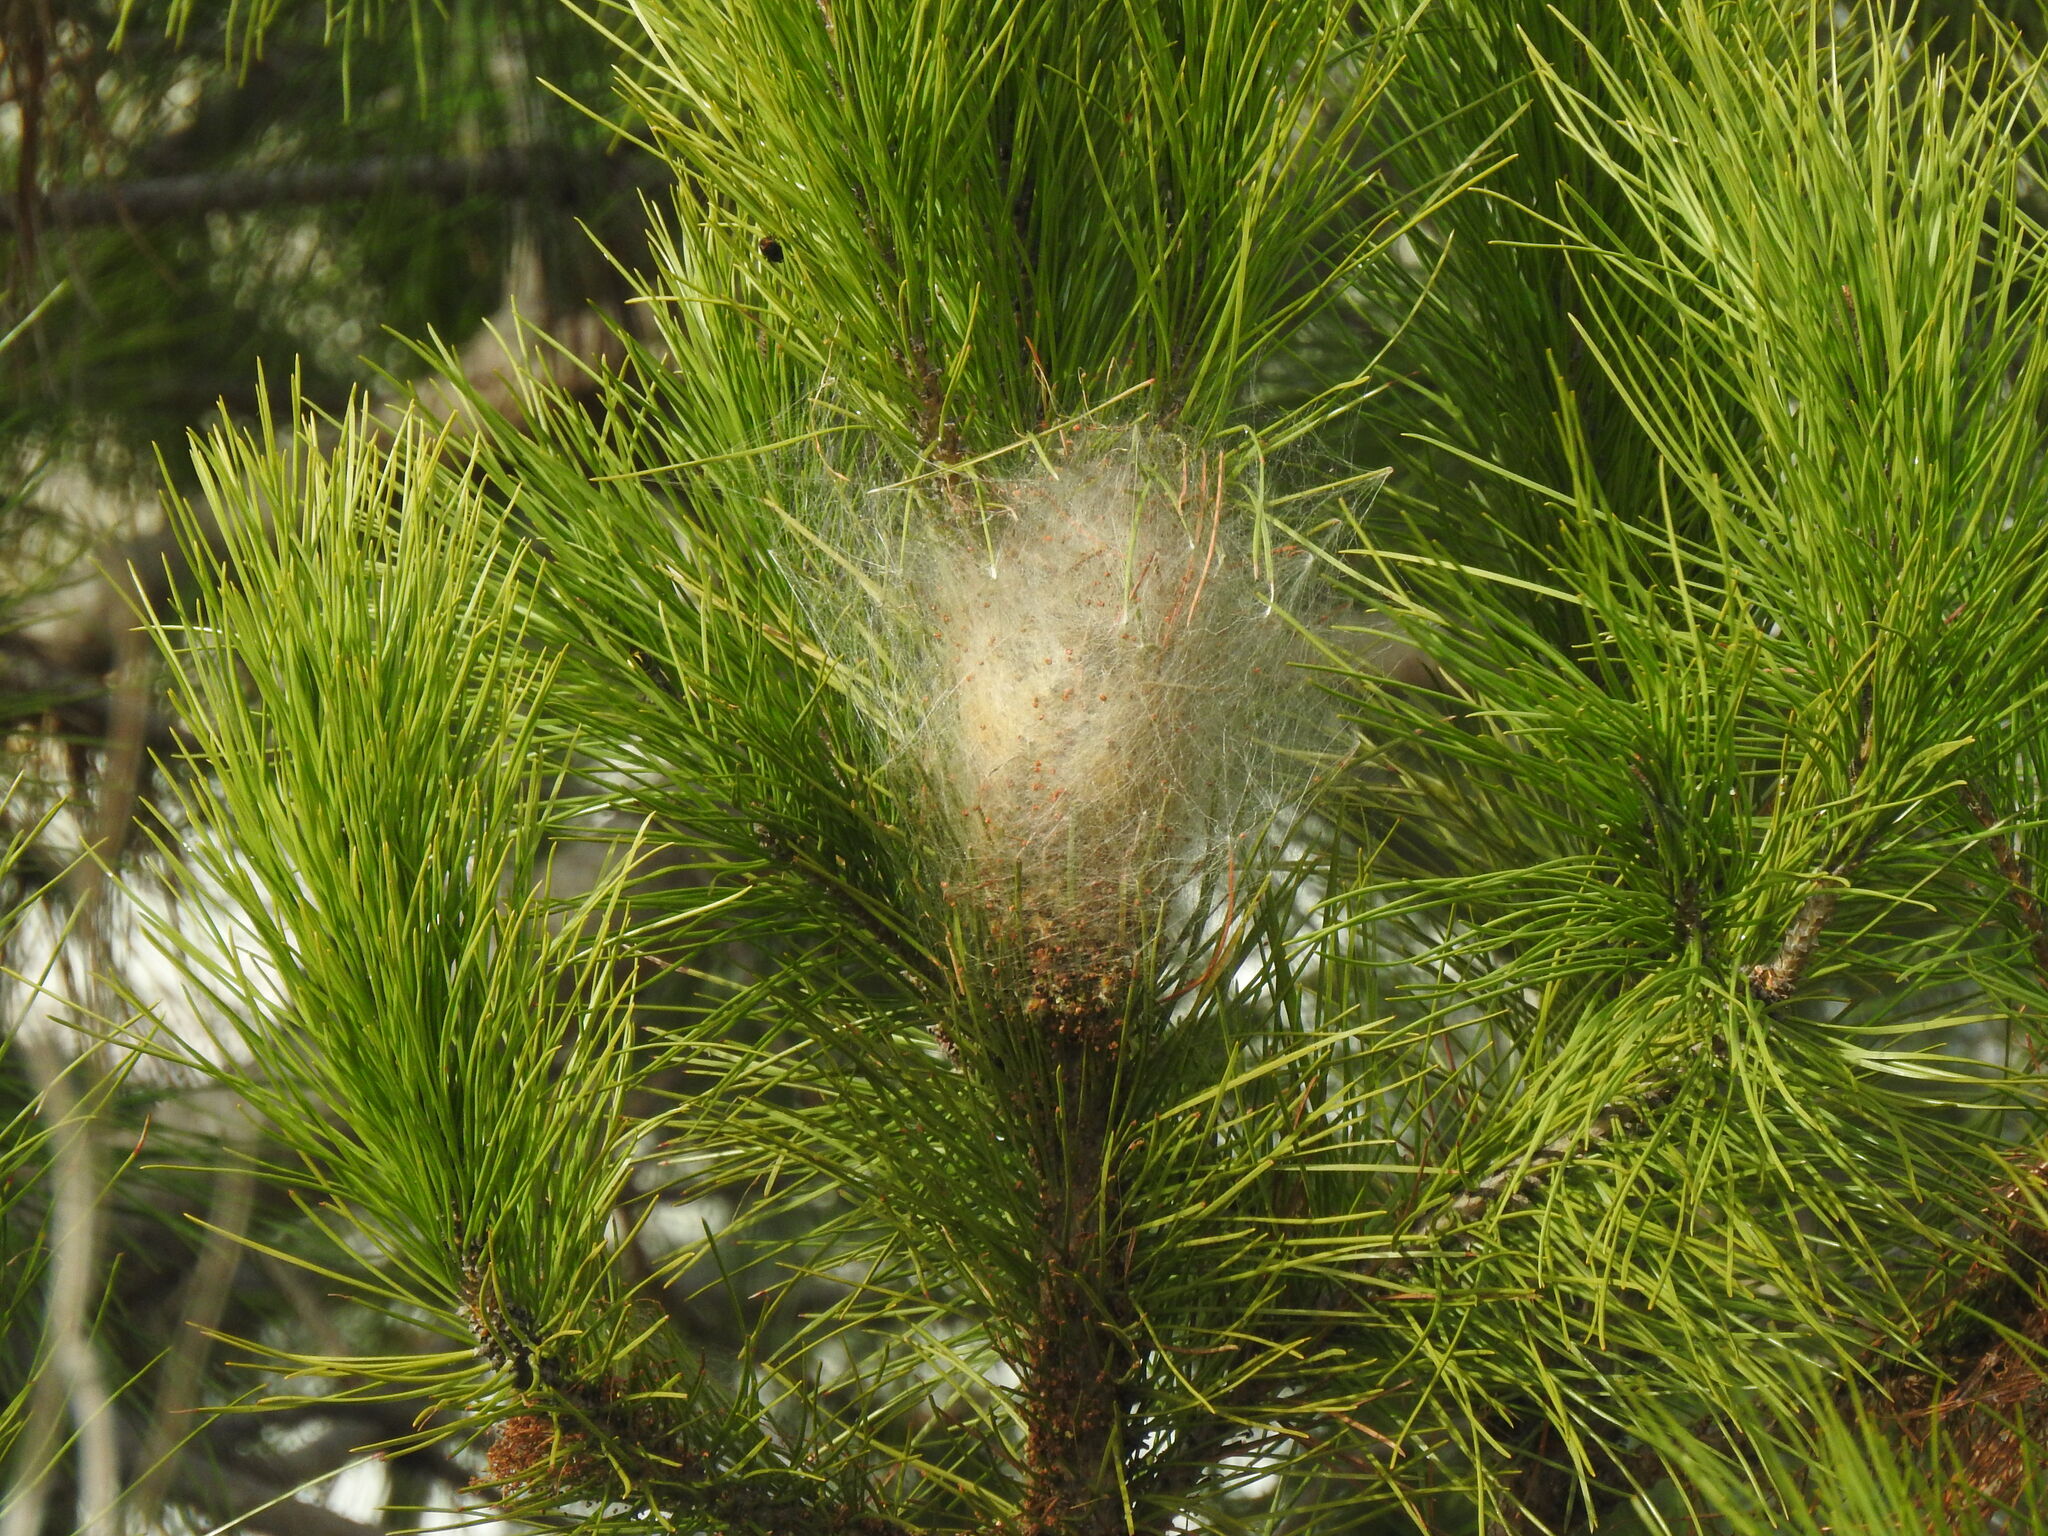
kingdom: Animalia
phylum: Arthropoda
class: Insecta
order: Lepidoptera
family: Notodontidae
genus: Thaumetopoea
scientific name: Thaumetopoea pityocampa
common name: Pine processionary
